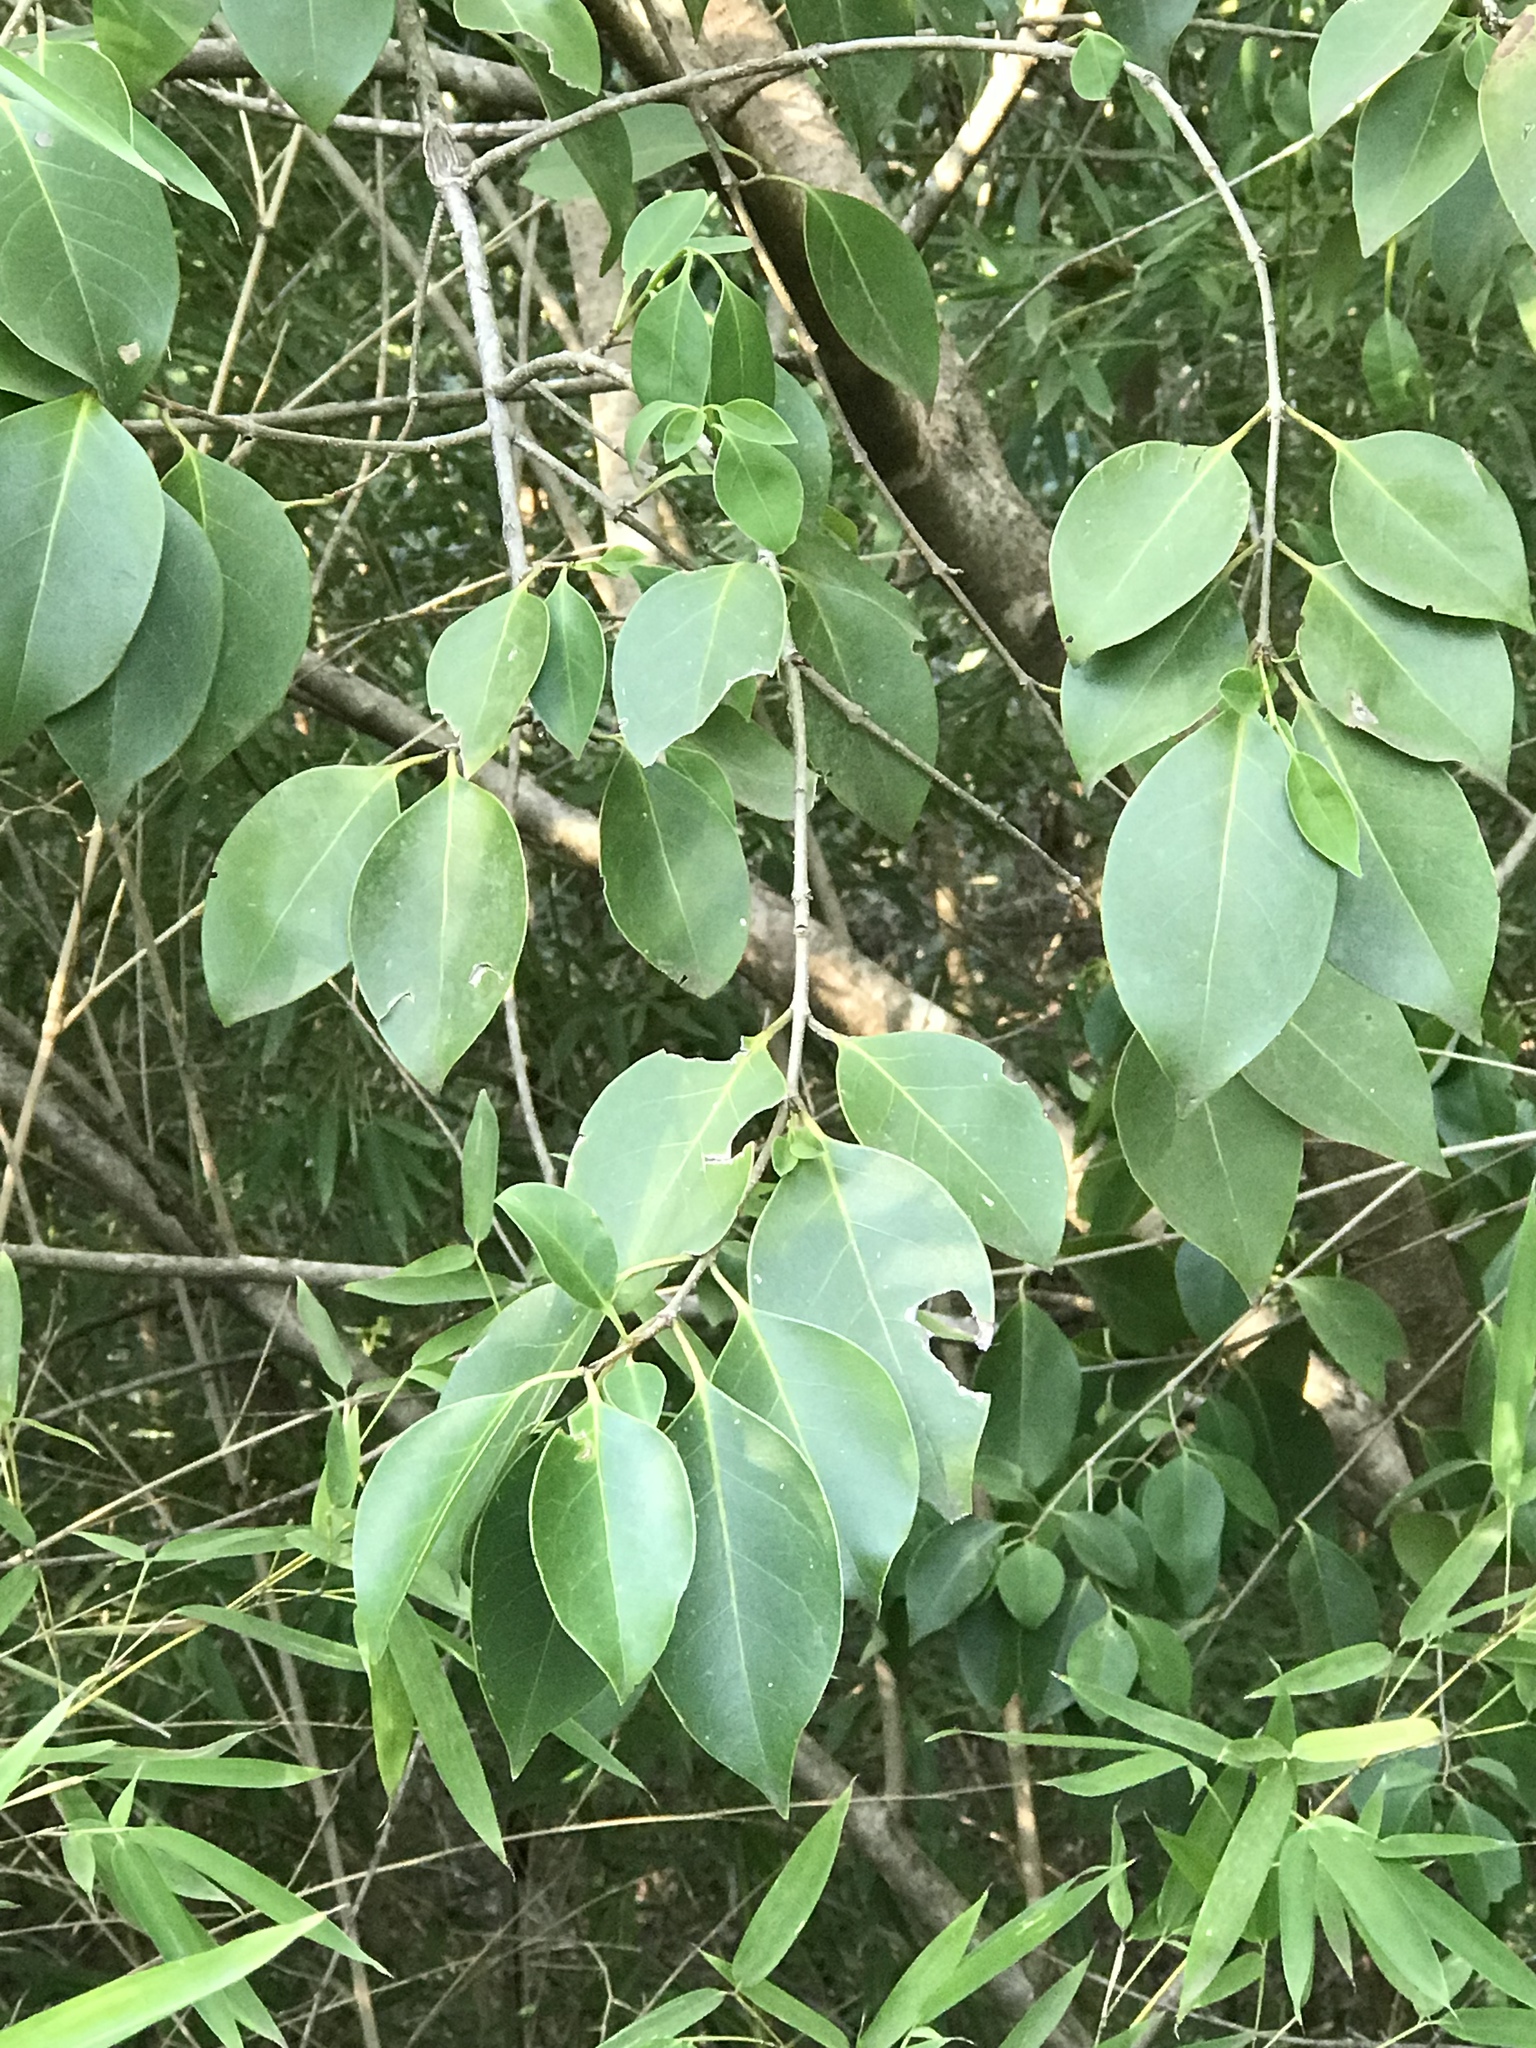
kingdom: Plantae
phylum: Tracheophyta
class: Magnoliopsida
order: Lamiales
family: Oleaceae
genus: Ligustrum
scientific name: Ligustrum lucidum
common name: Glossy privet
